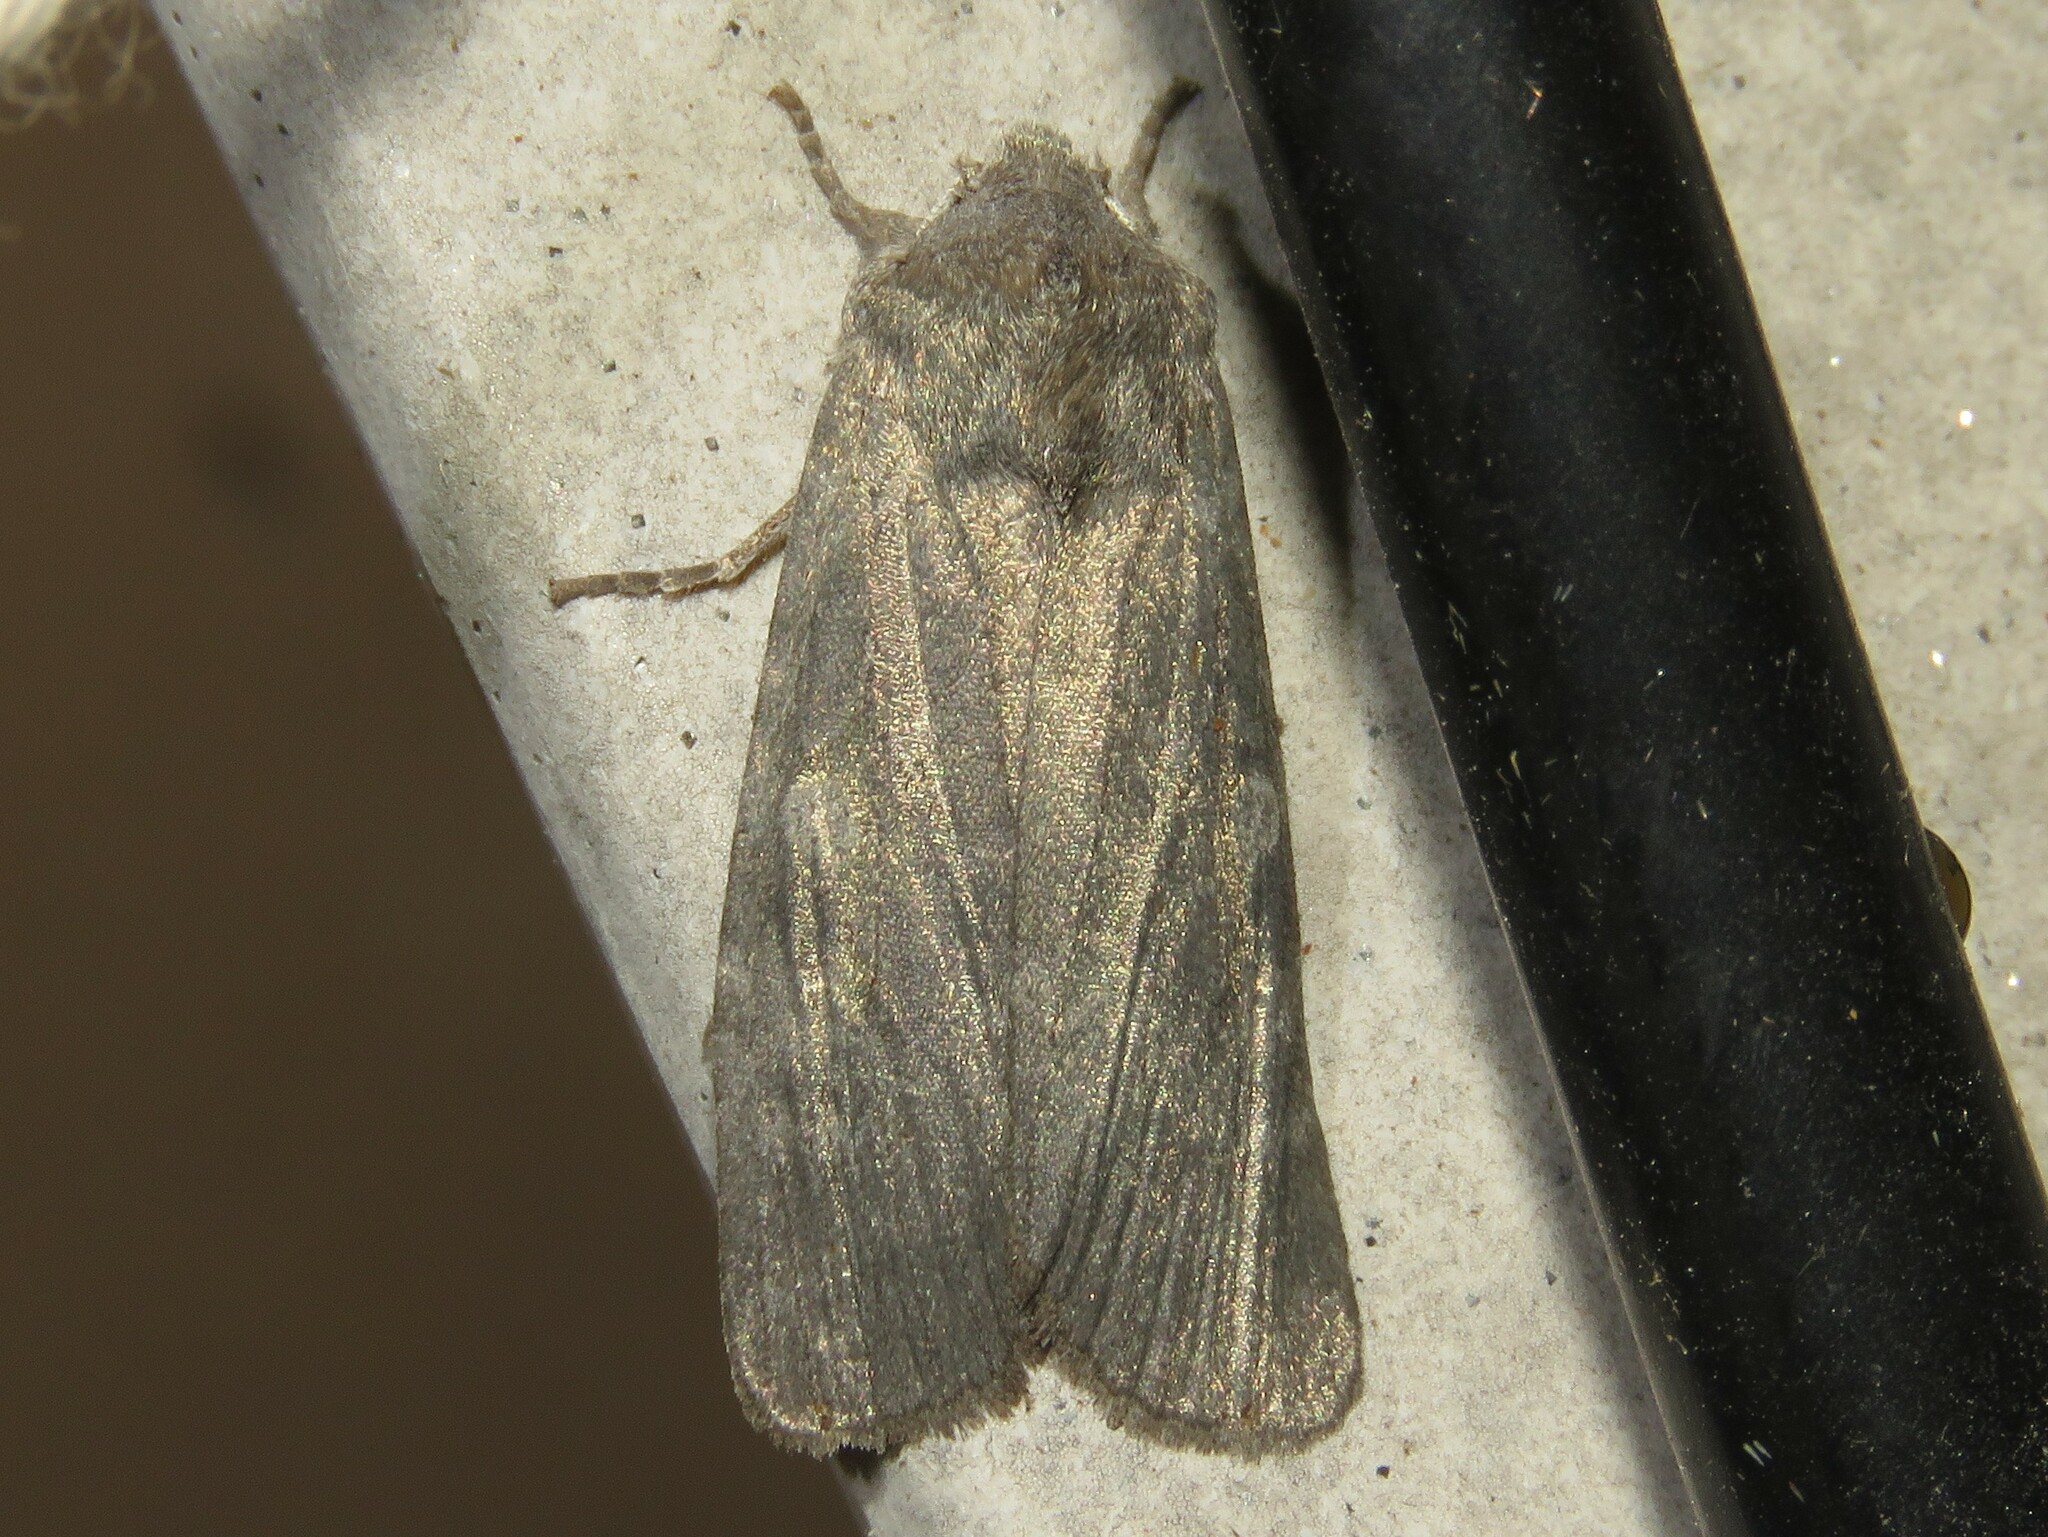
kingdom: Animalia
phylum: Arthropoda
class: Insecta
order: Lepidoptera
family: Noctuidae
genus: Lithophane
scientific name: Lithophane unimoda
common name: Dowdy pinion
